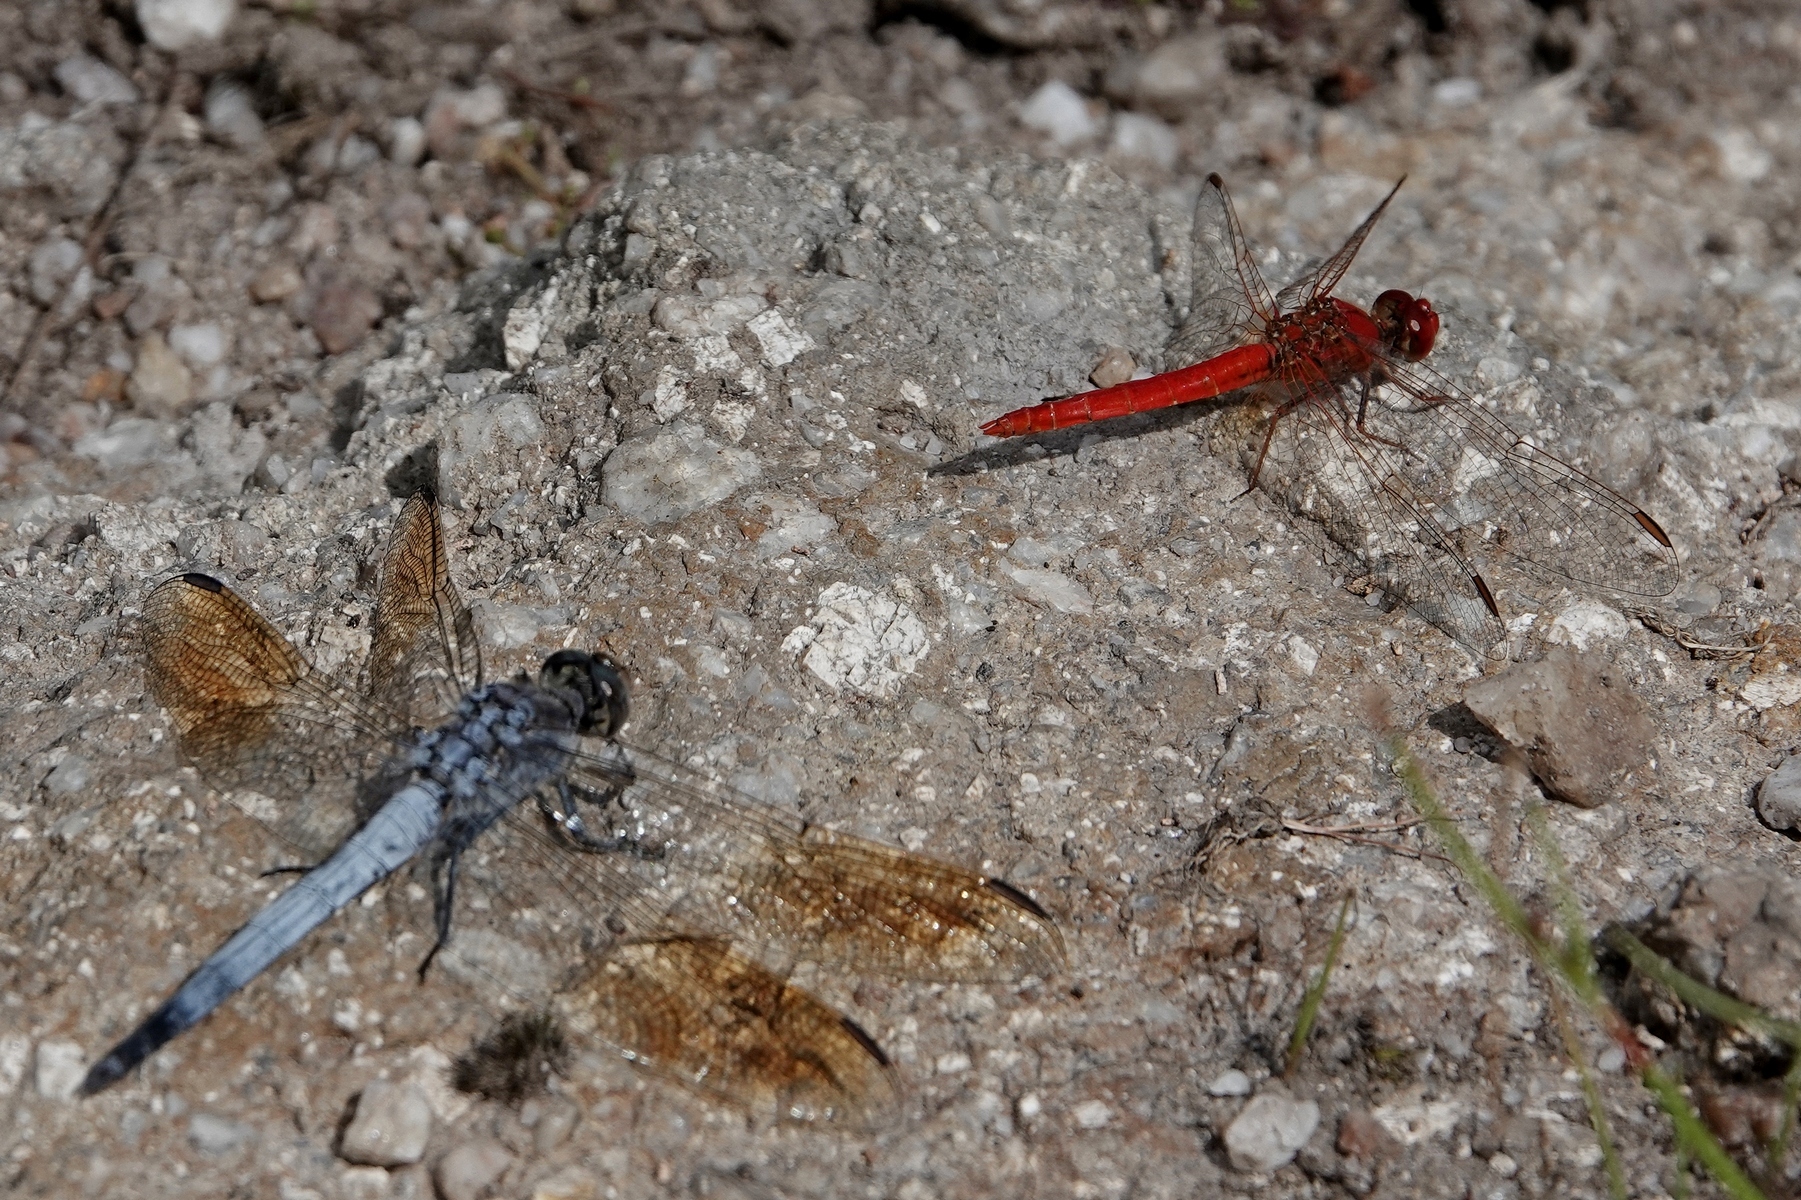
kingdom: Animalia
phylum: Arthropoda
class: Insecta
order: Odonata
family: Libellulidae
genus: Diplacodes
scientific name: Diplacodes haematodes
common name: Scarlet percher
